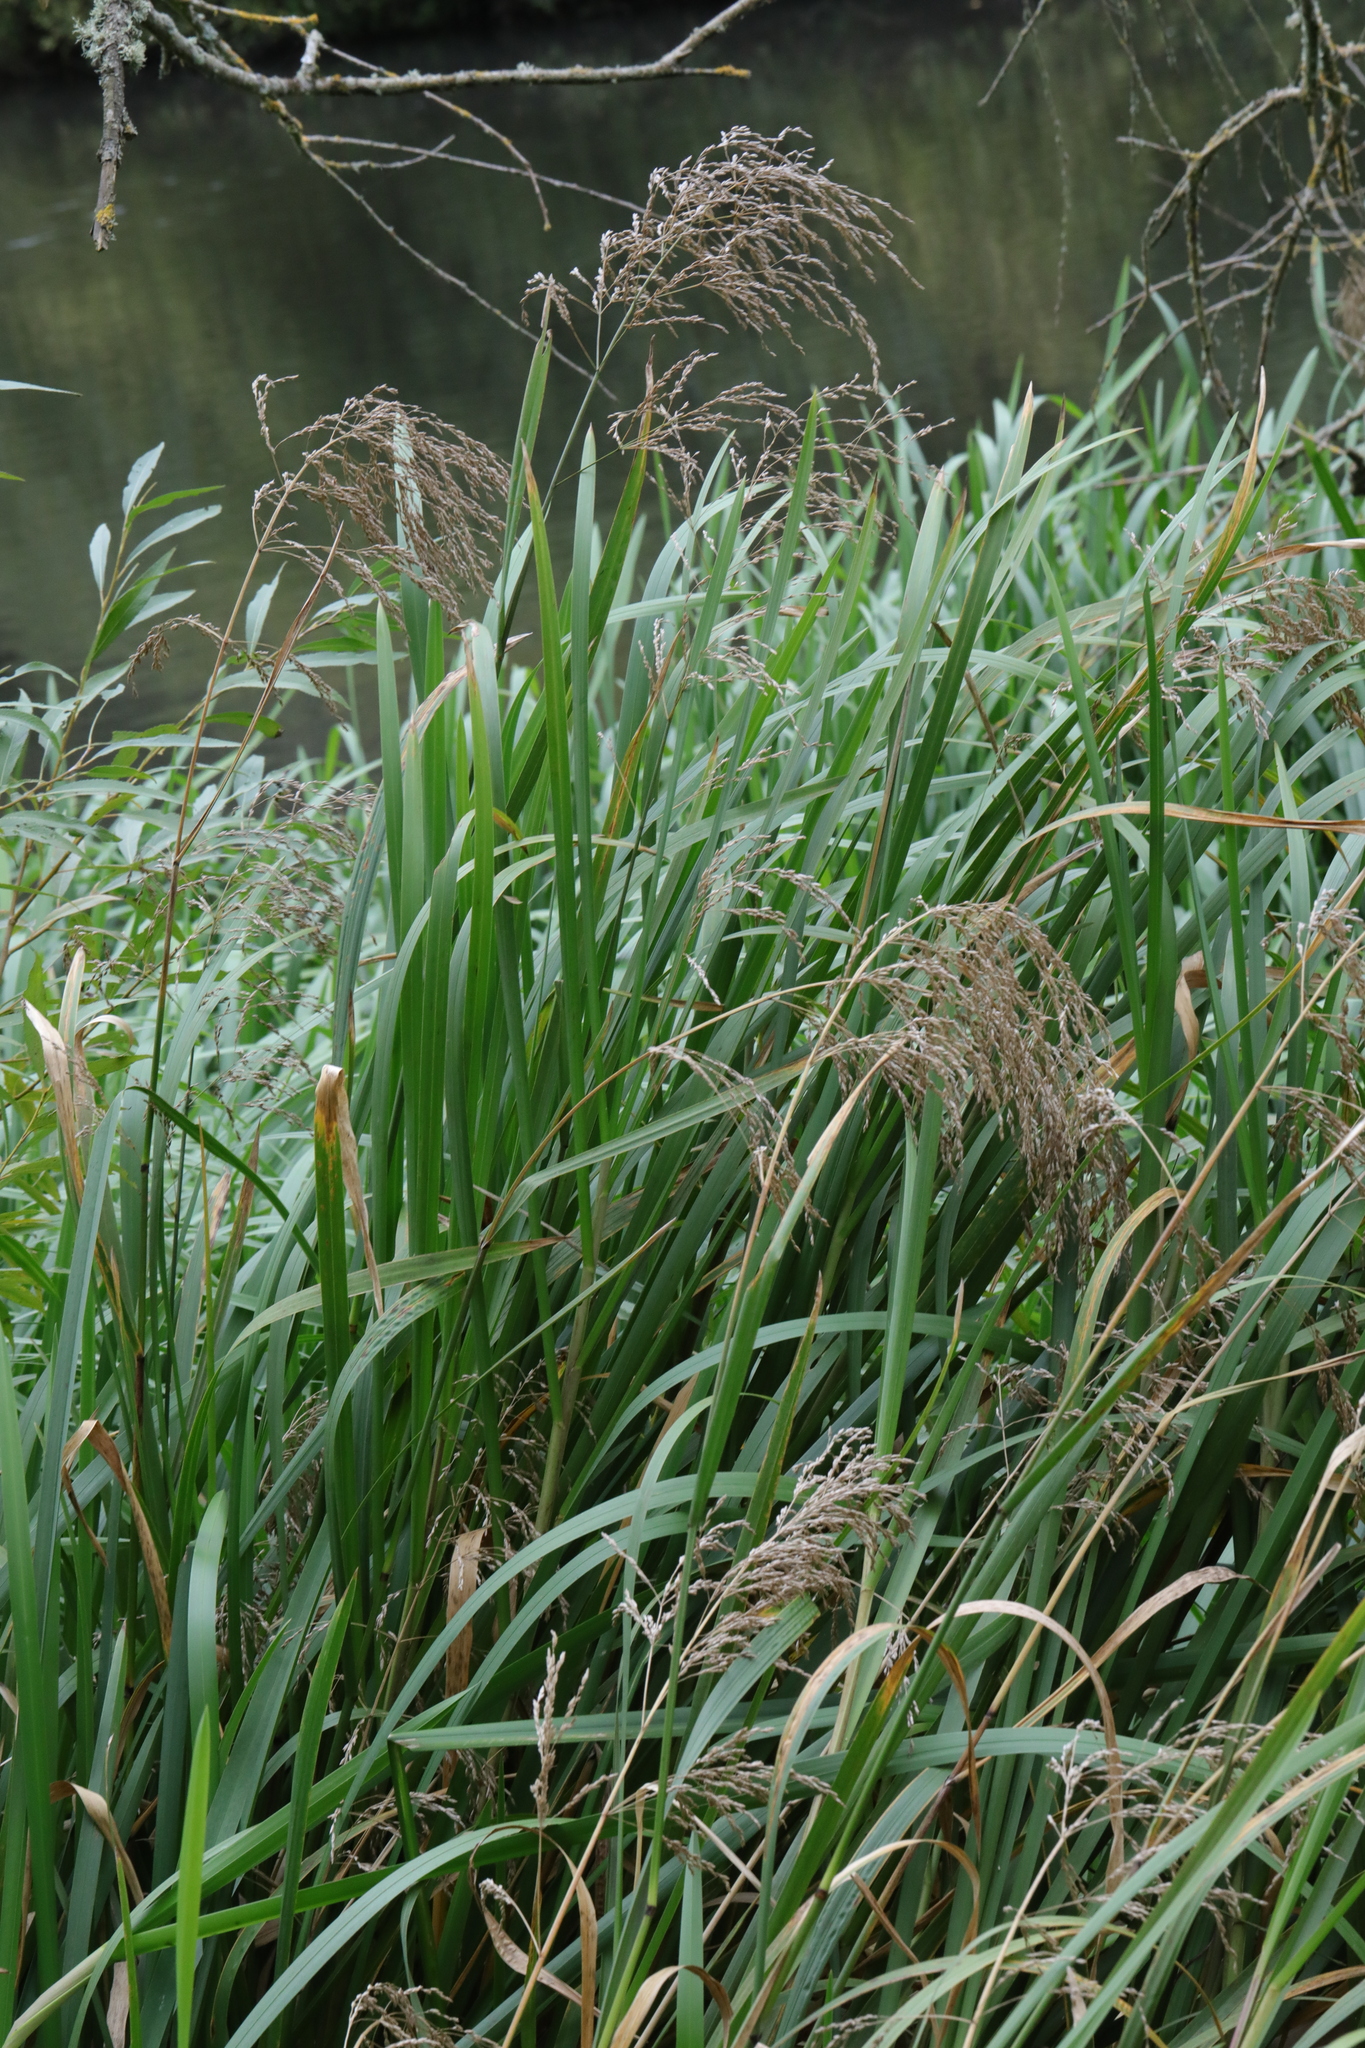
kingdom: Plantae
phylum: Tracheophyta
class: Liliopsida
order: Poales
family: Poaceae
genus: Glyceria
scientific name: Glyceria maxima
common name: Reed mannagrass
